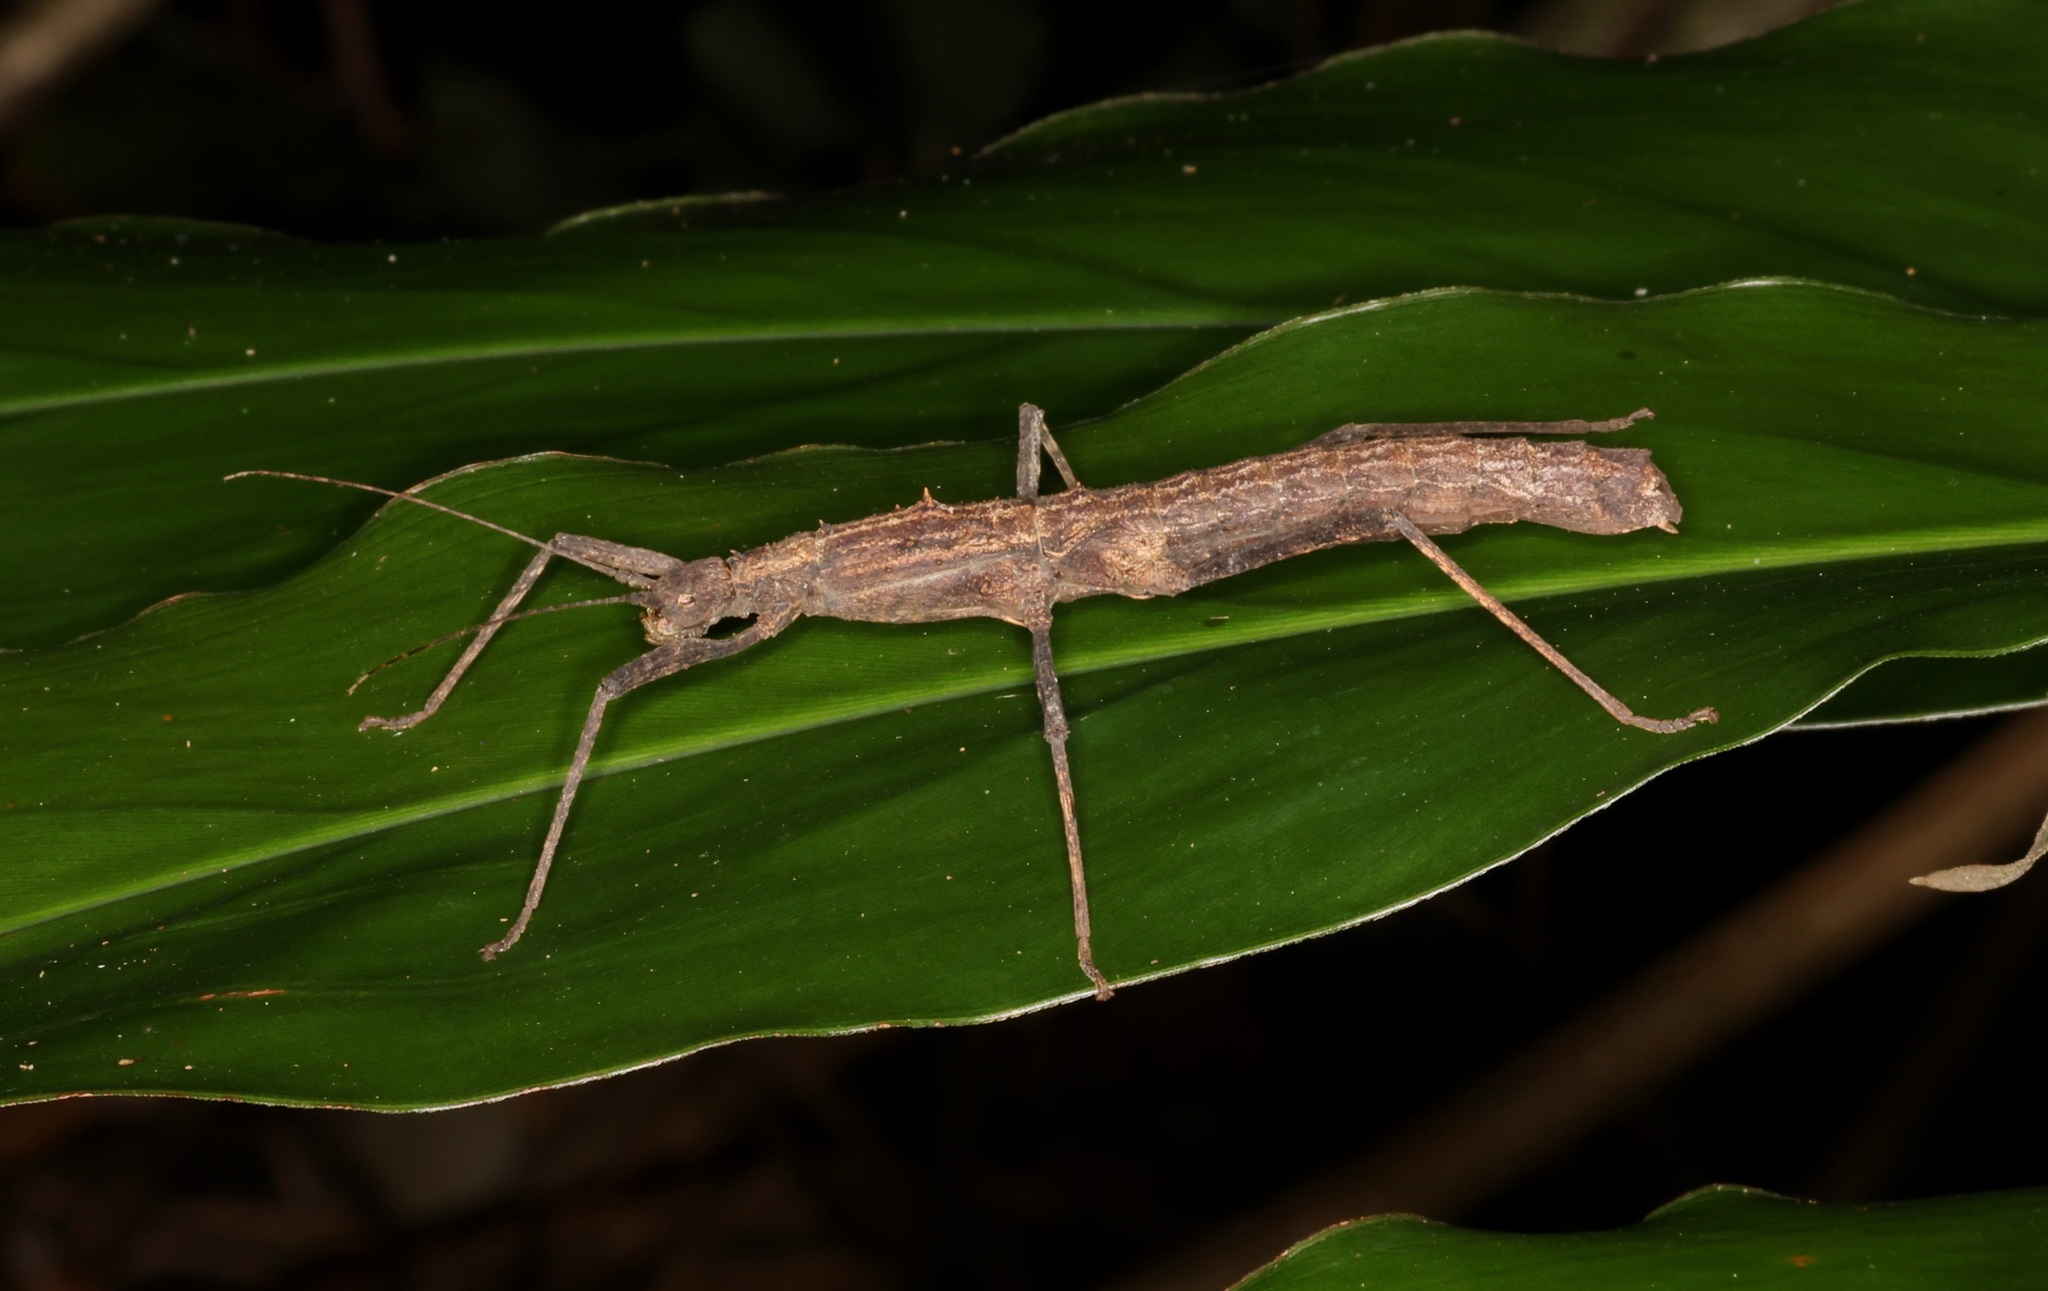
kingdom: Animalia
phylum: Arthropoda
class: Insecta
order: Phasmida
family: Lonchodidae
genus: Neohirasea
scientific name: Neohirasea hongkongensis
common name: Hong kong spiny stick insect
